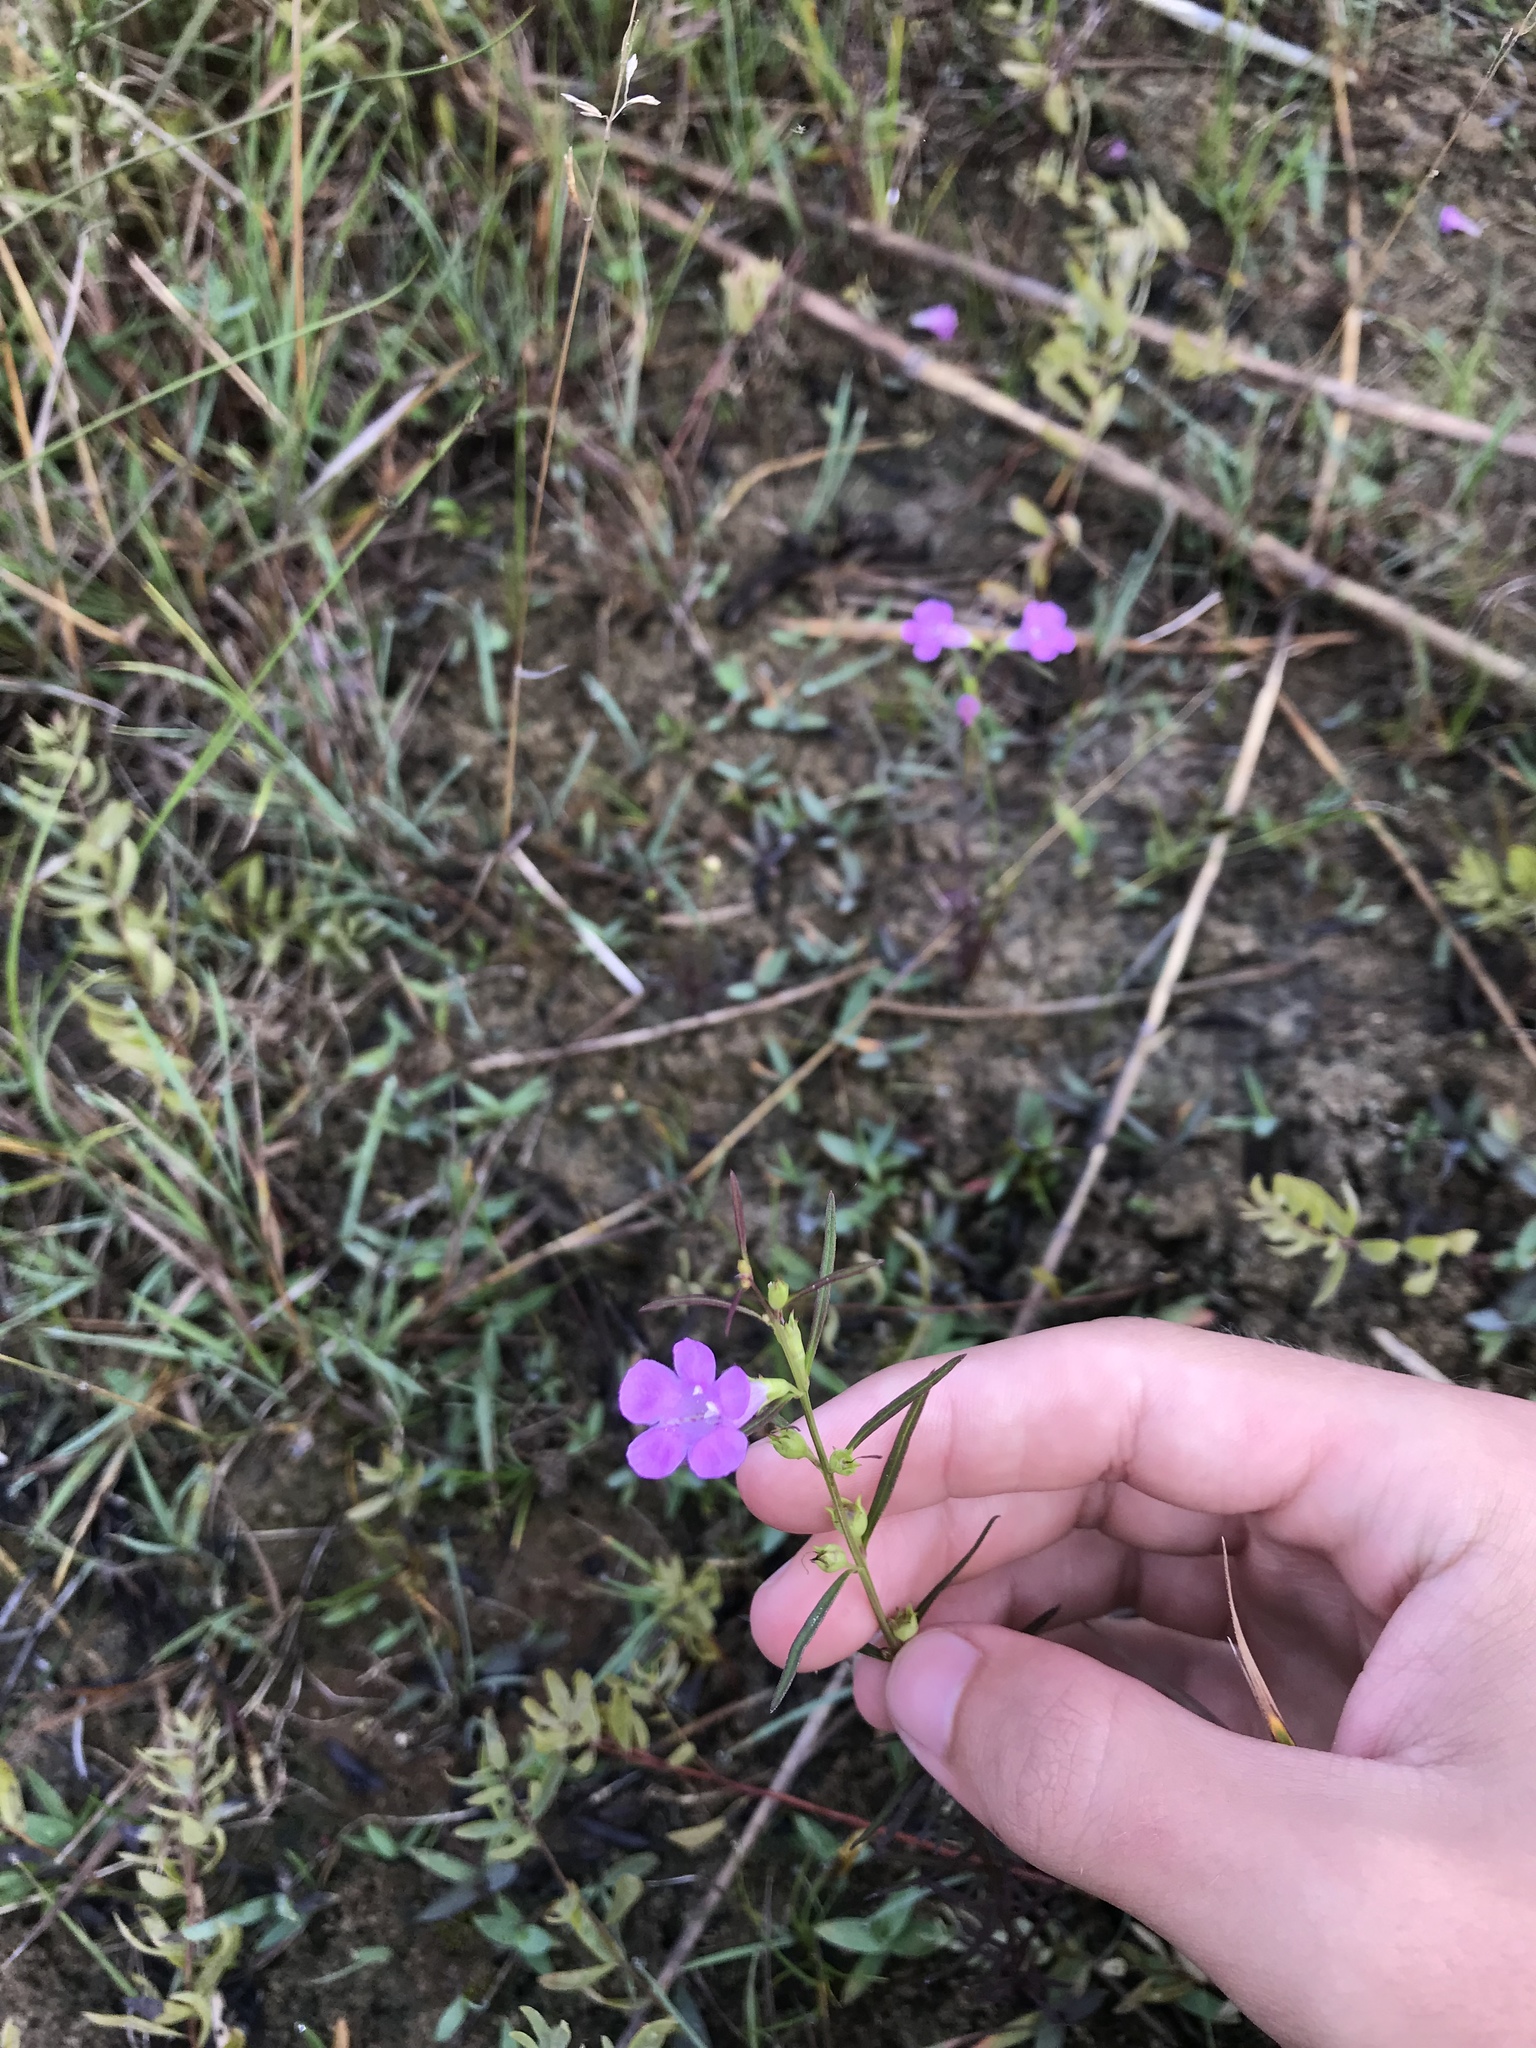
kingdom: Plantae
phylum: Tracheophyta
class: Magnoliopsida
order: Lamiales
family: Orobanchaceae
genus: Agalinis
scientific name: Agalinis purpurea
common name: Purple false foxglove
